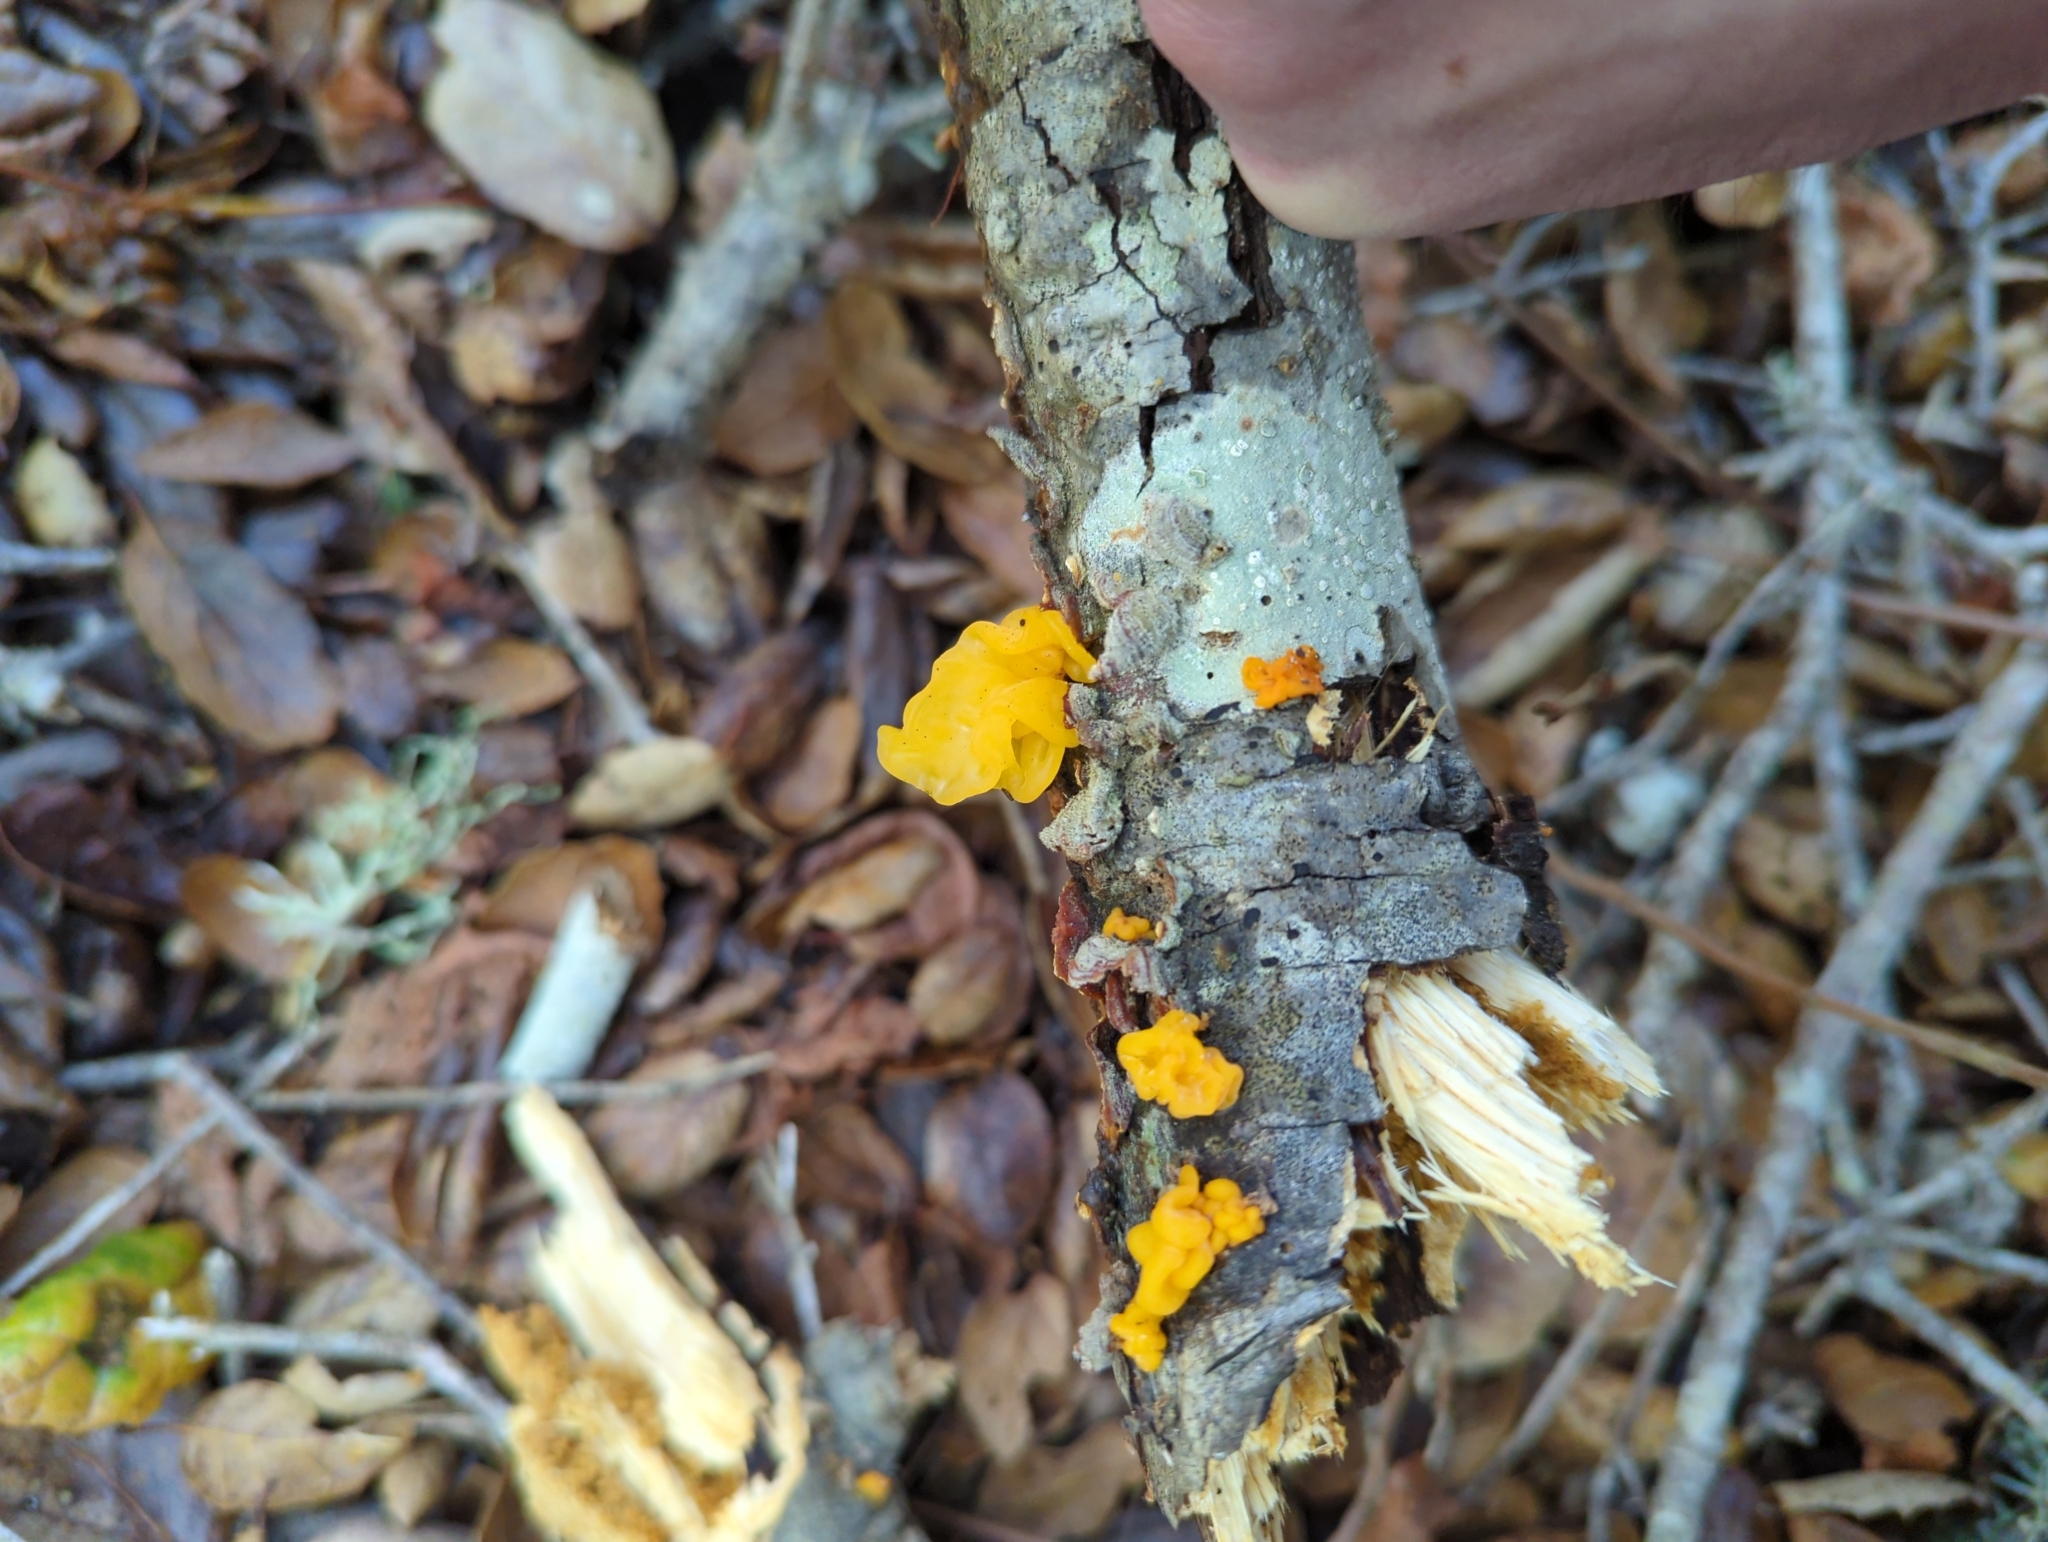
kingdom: Fungi
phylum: Basidiomycota
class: Tremellomycetes
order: Tremellales
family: Naemateliaceae
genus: Naematelia
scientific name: Naematelia aurantia
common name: Golden ear
